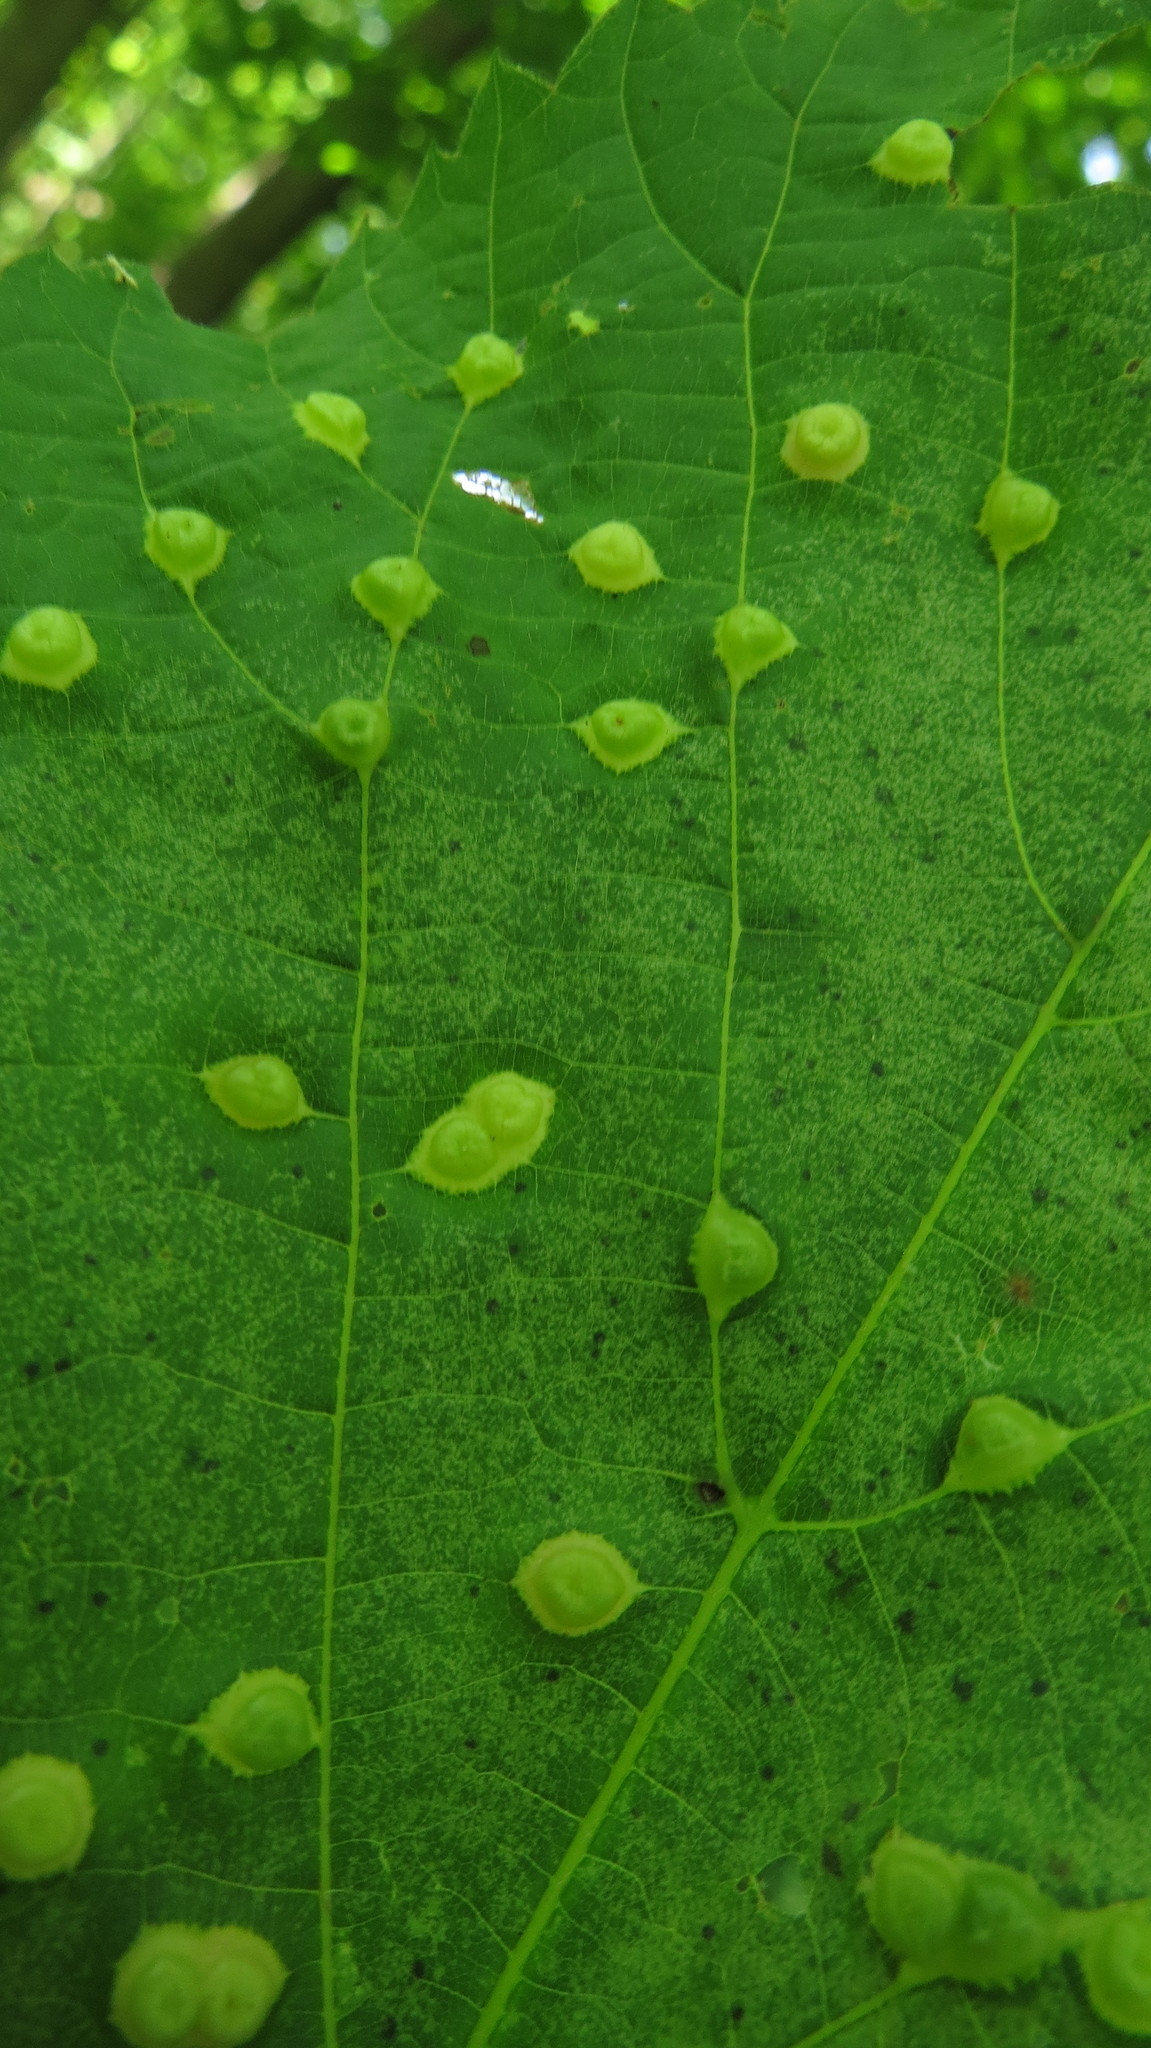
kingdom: Animalia
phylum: Arthropoda
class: Insecta
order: Diptera
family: Cecidomyiidae
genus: Contarinia
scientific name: Contarinia verrucicola
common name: Linden wart gall midge
